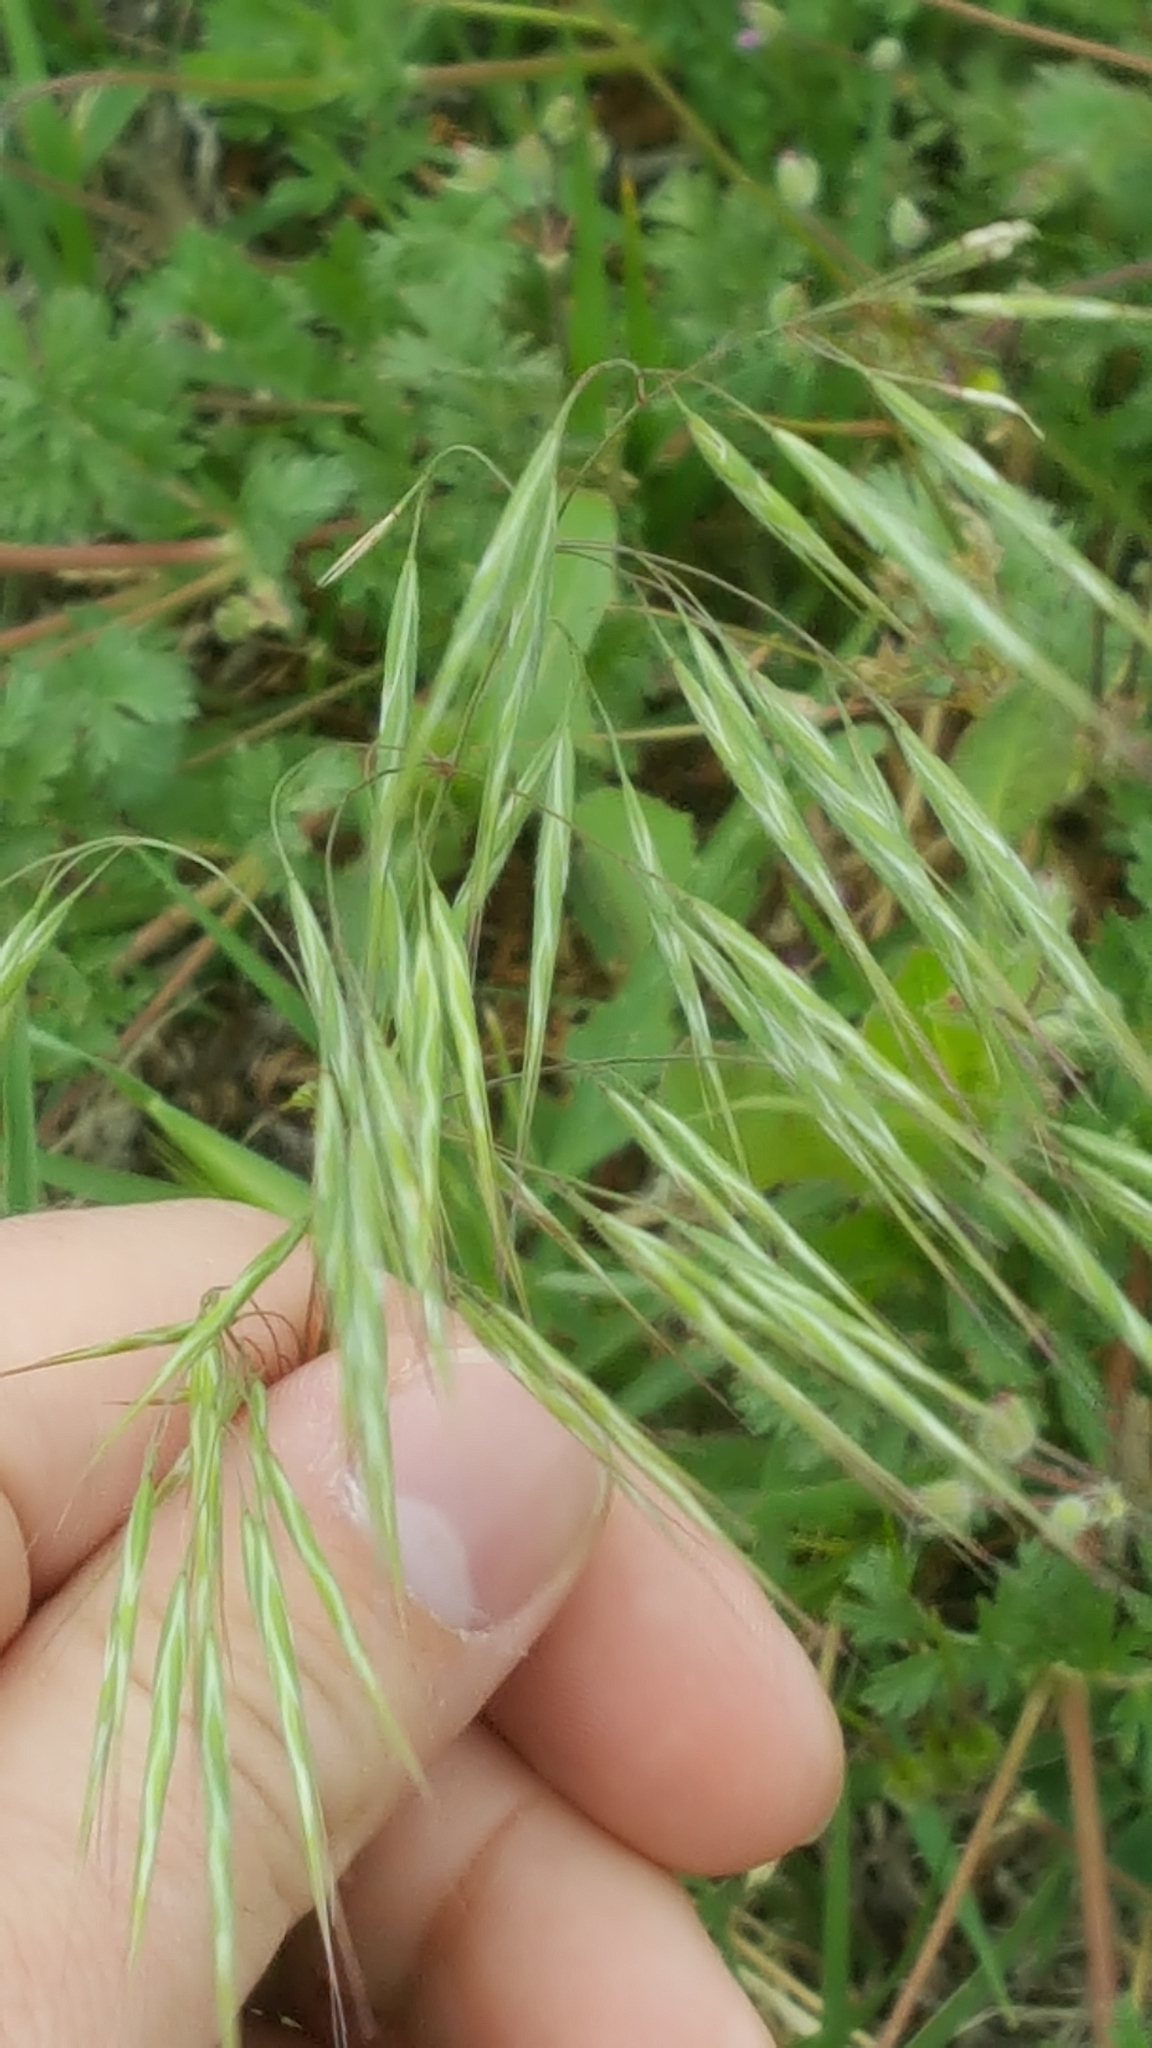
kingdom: Plantae
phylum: Tracheophyta
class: Liliopsida
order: Poales
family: Poaceae
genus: Bromus
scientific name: Bromus tectorum
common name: Cheatgrass
